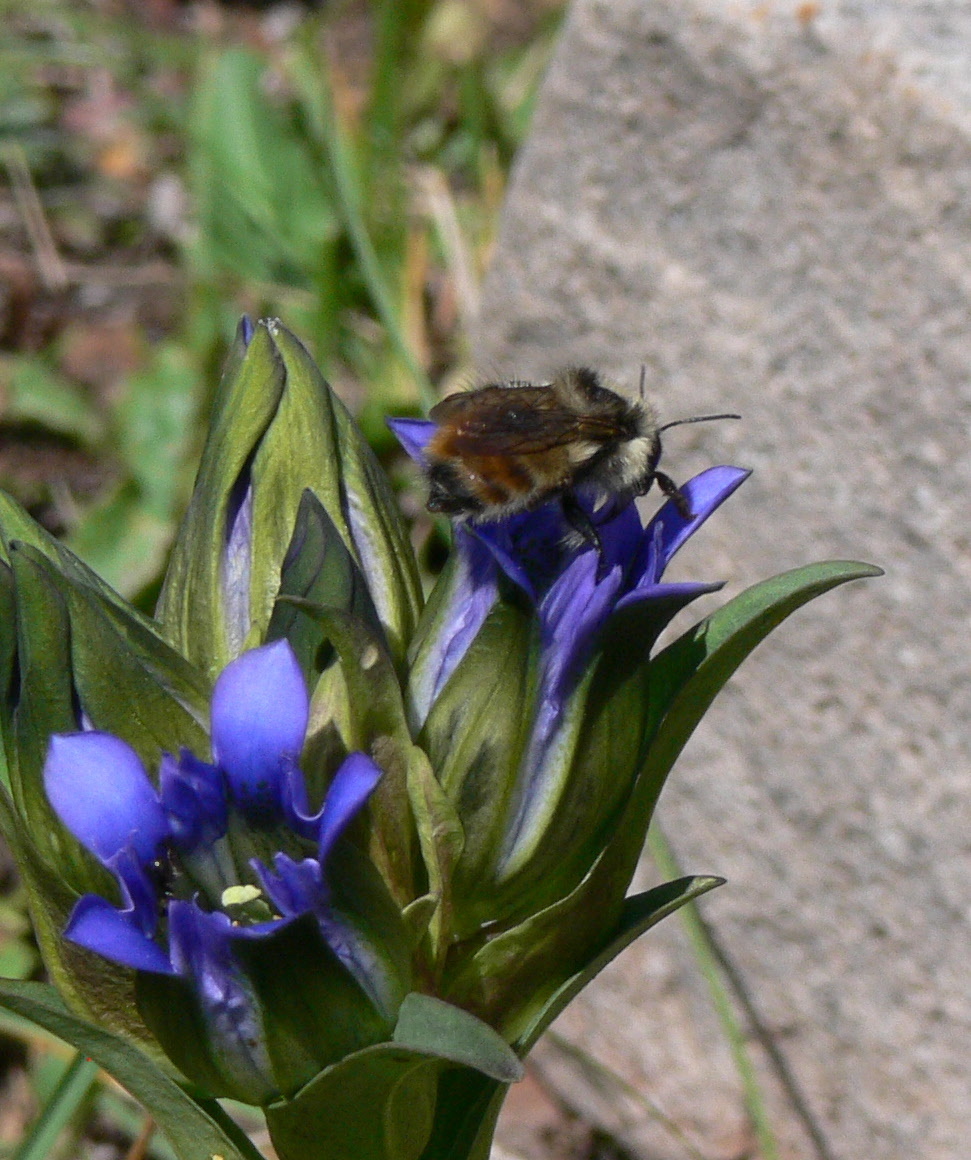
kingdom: Animalia
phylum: Arthropoda
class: Insecta
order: Hymenoptera
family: Apidae
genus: Bombus
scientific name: Bombus flavifrons
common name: Yellow head bumble bee
